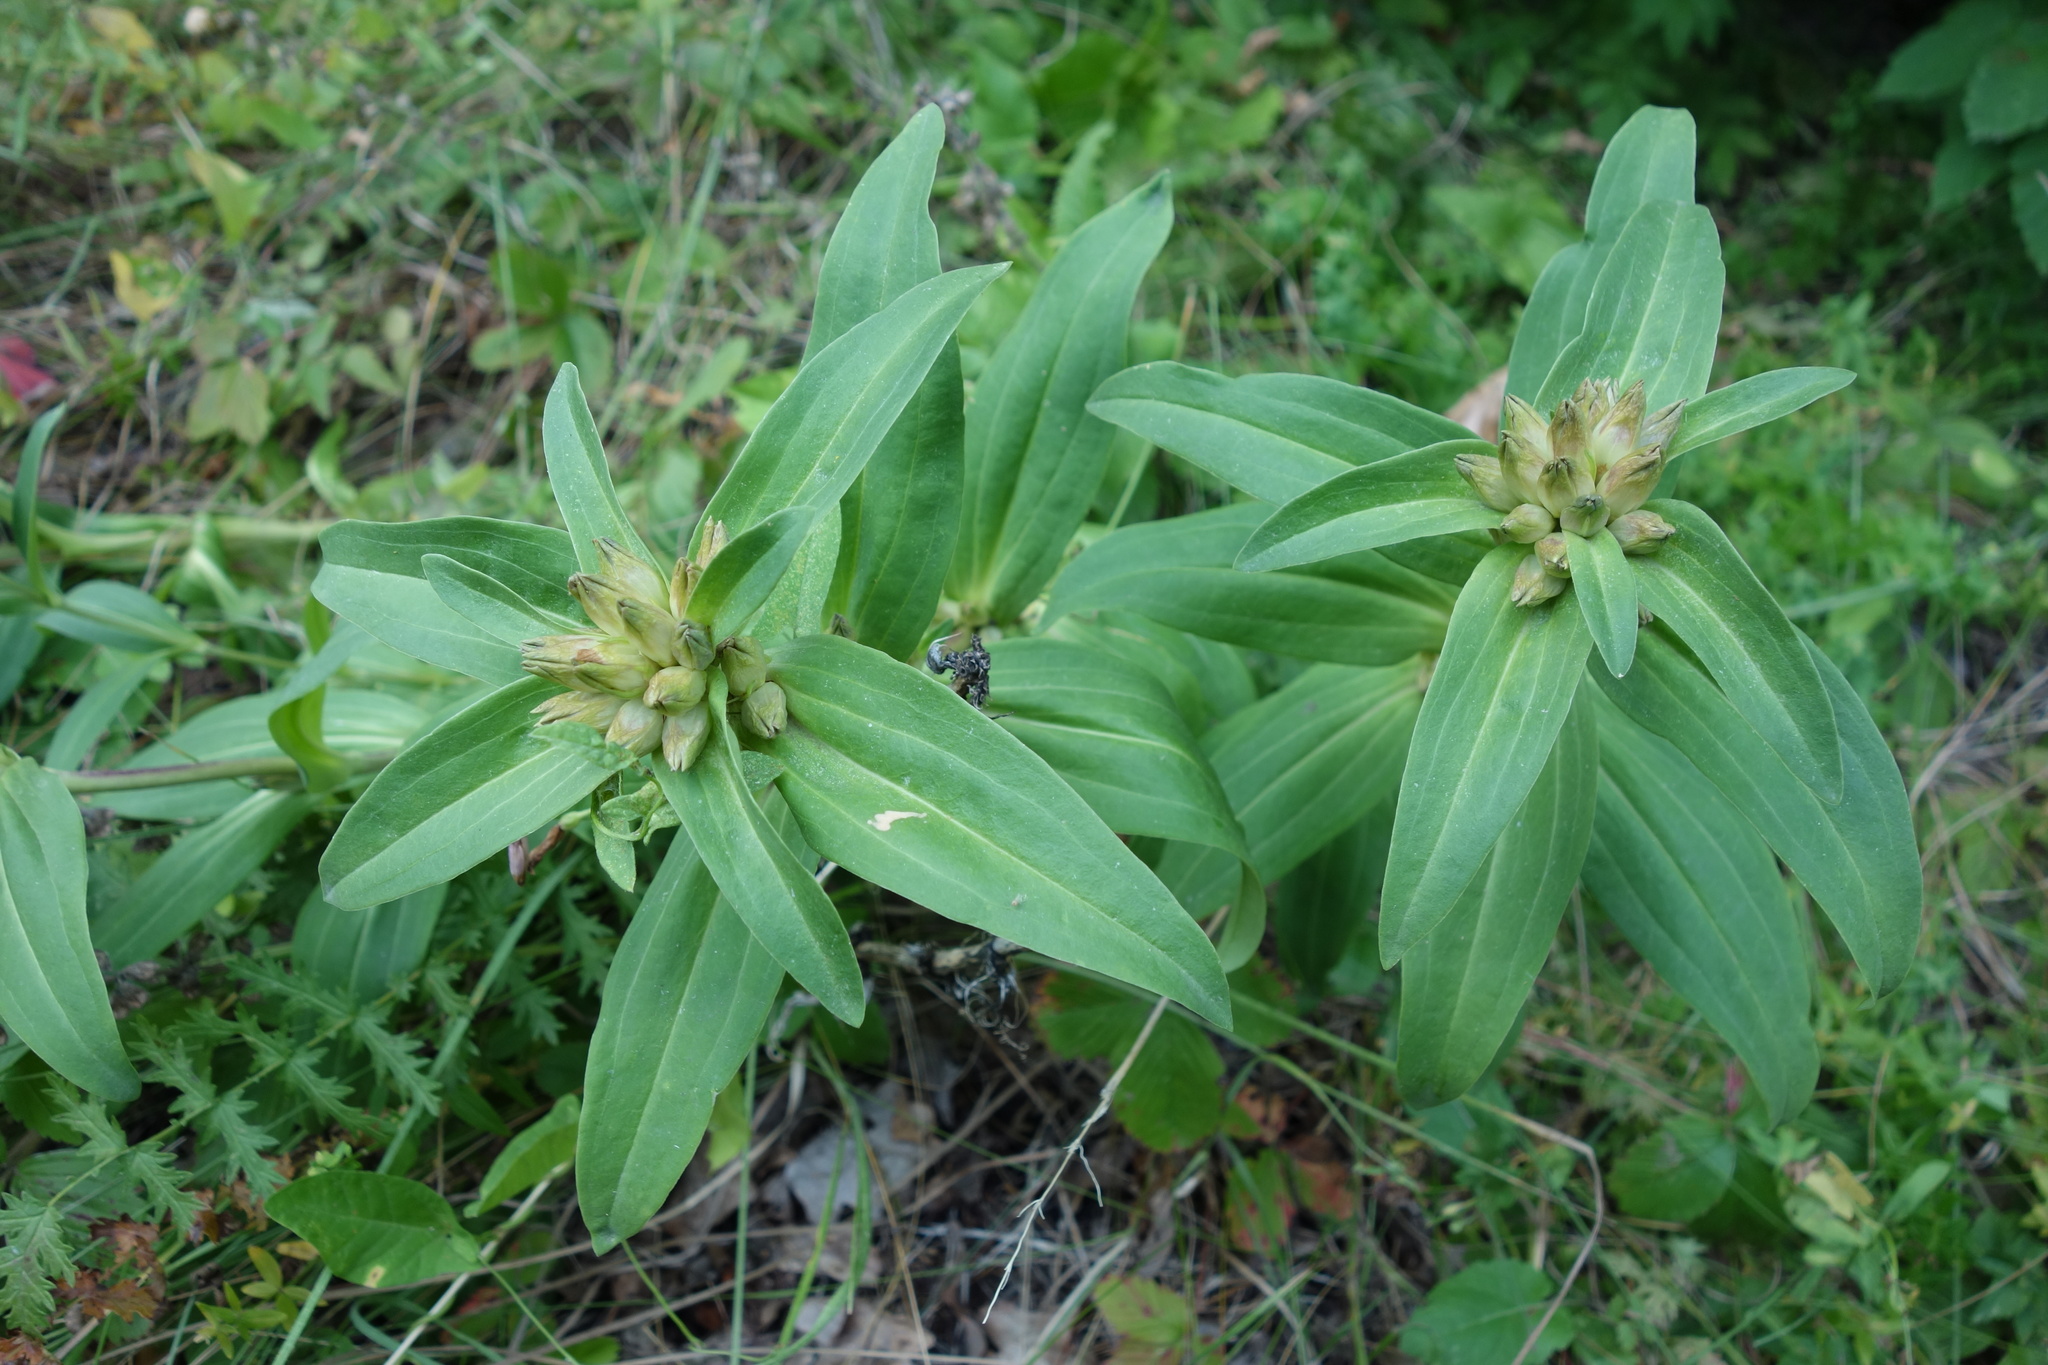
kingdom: Plantae
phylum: Tracheophyta
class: Magnoliopsida
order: Gentianales
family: Gentianaceae
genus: Gentiana
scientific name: Gentiana cruciata
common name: Cross gentian
